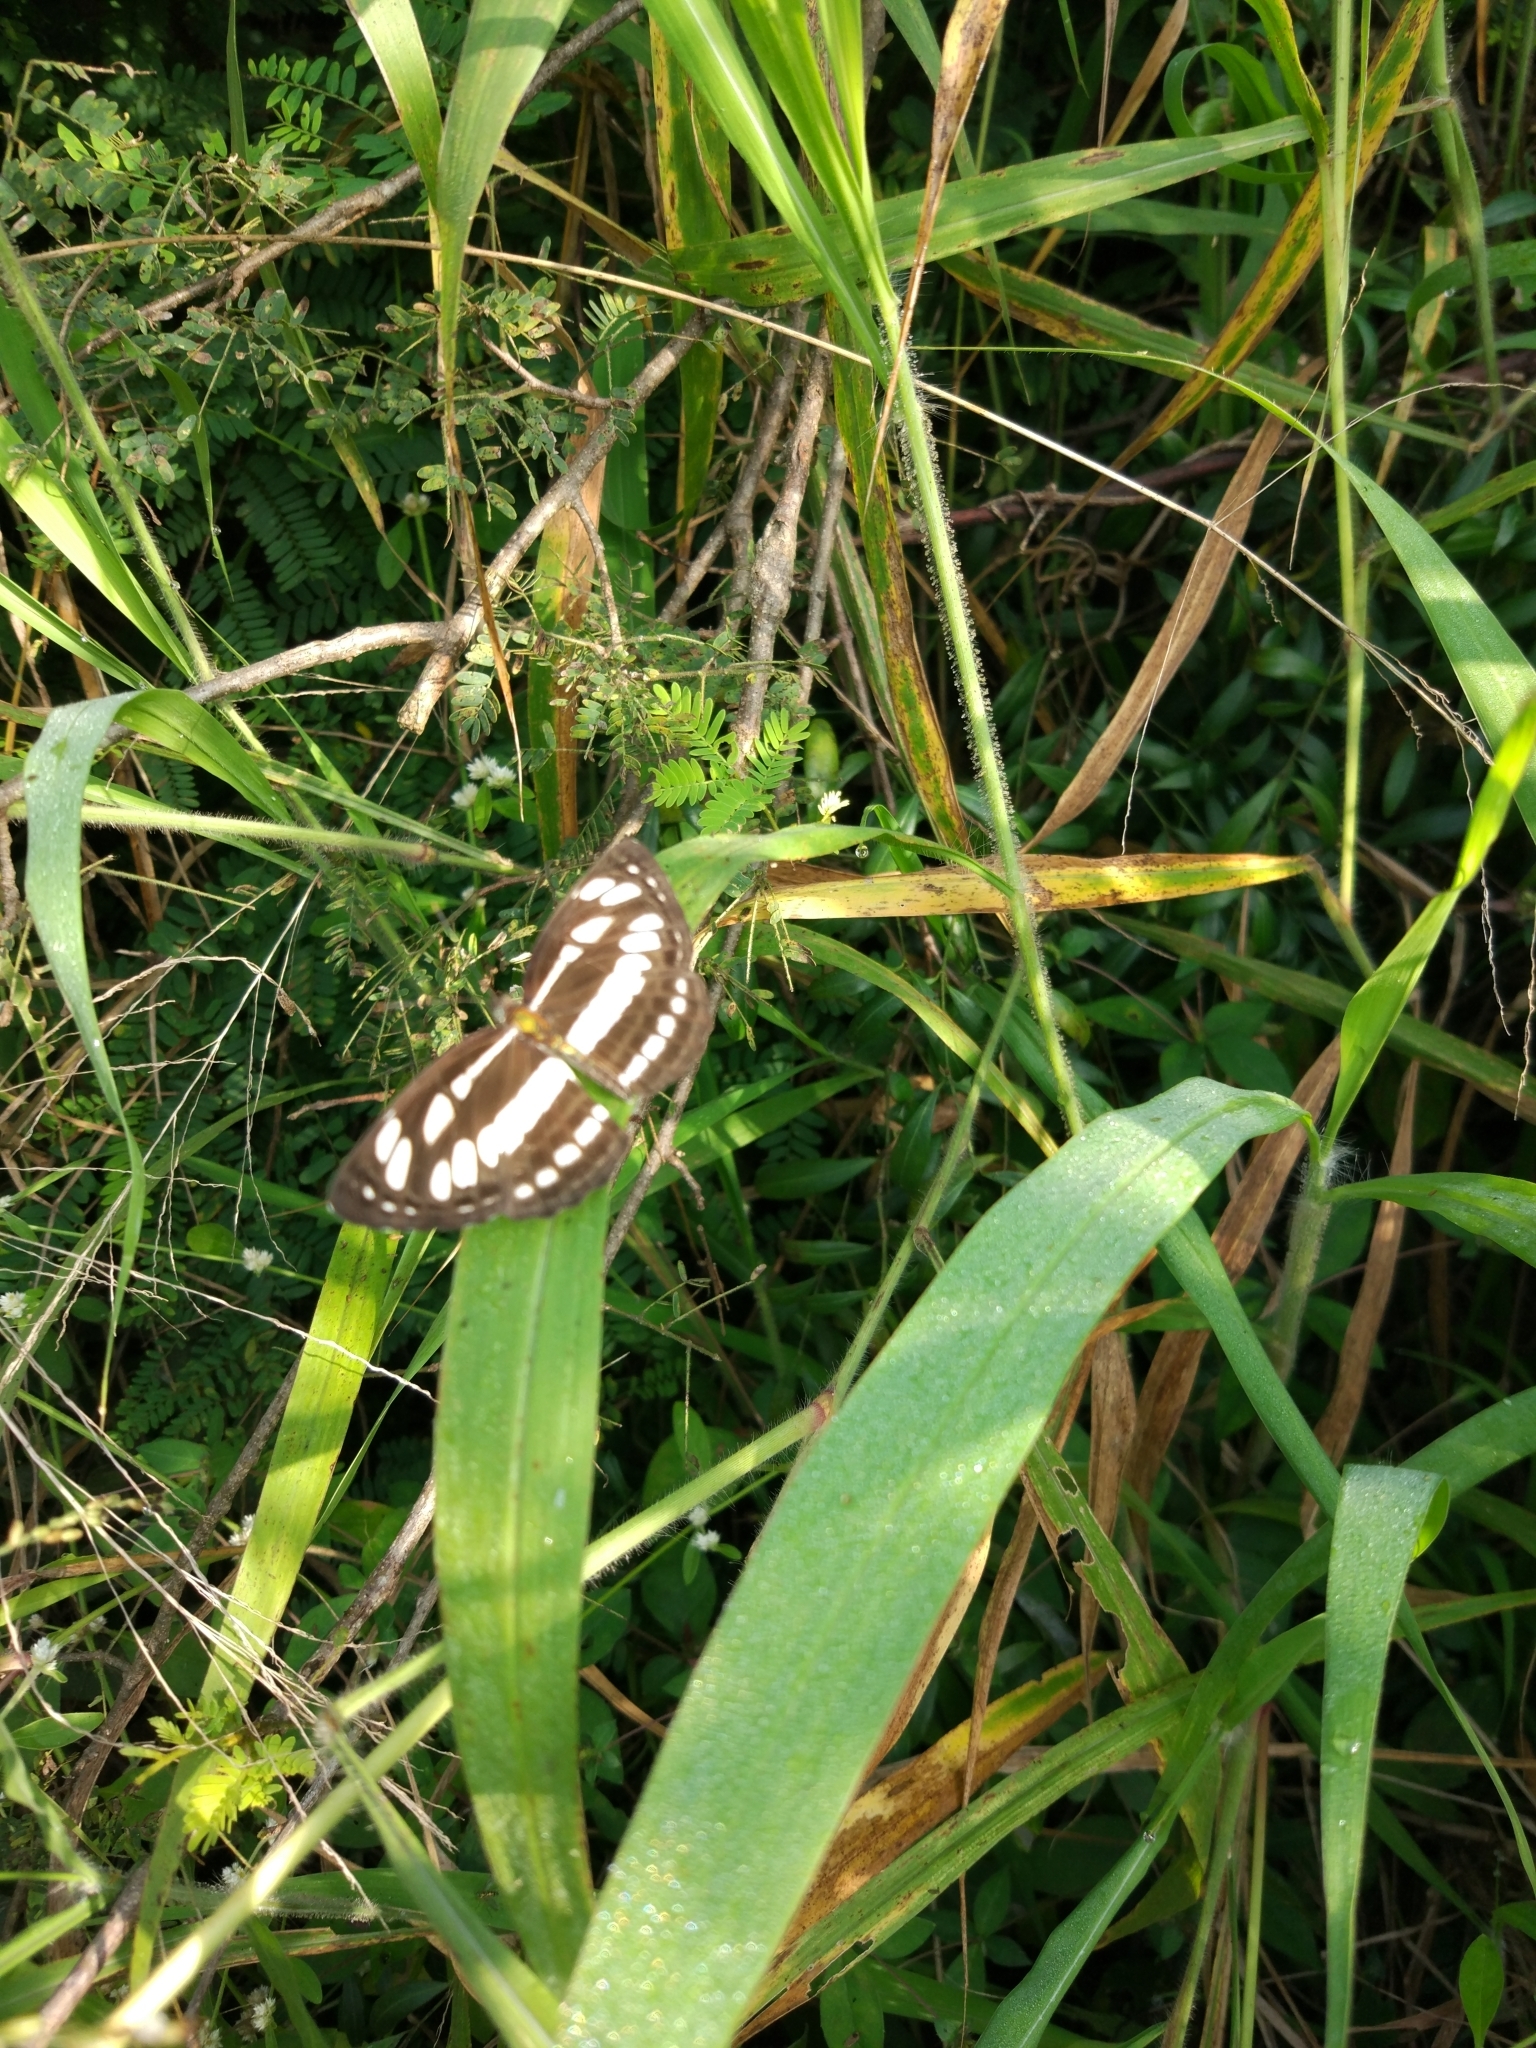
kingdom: Animalia
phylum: Arthropoda
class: Insecta
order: Lepidoptera
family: Nymphalidae
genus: Neptis
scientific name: Neptis hylas
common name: Common sailer
